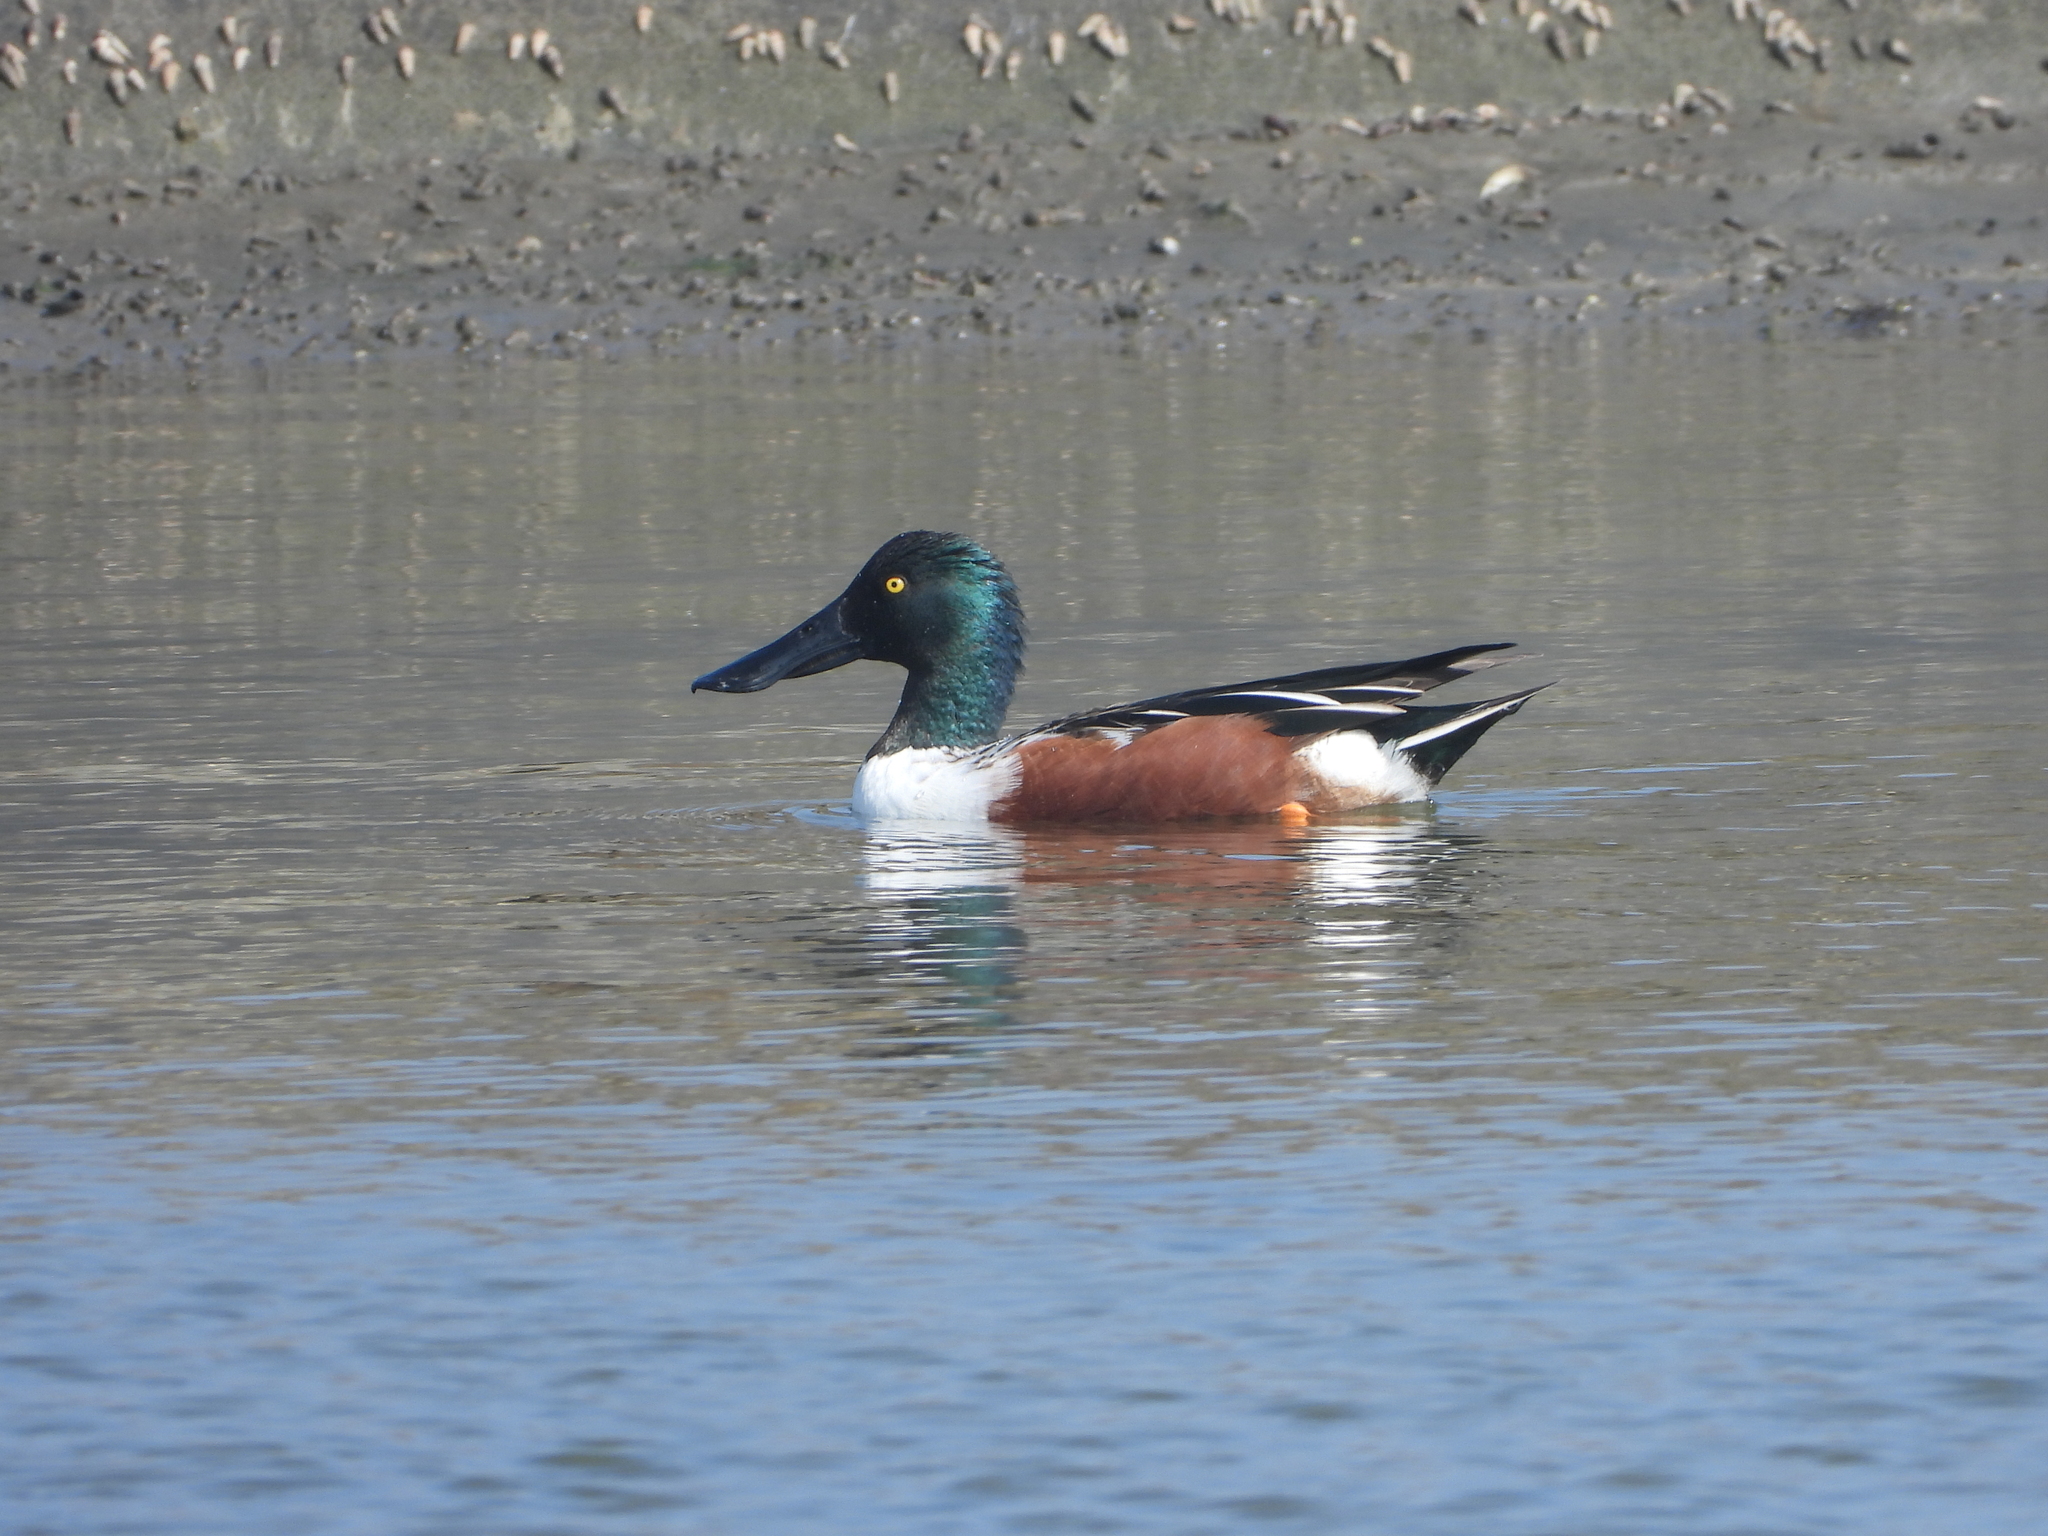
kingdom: Animalia
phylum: Chordata
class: Aves
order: Anseriformes
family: Anatidae
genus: Spatula
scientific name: Spatula clypeata
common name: Northern shoveler
